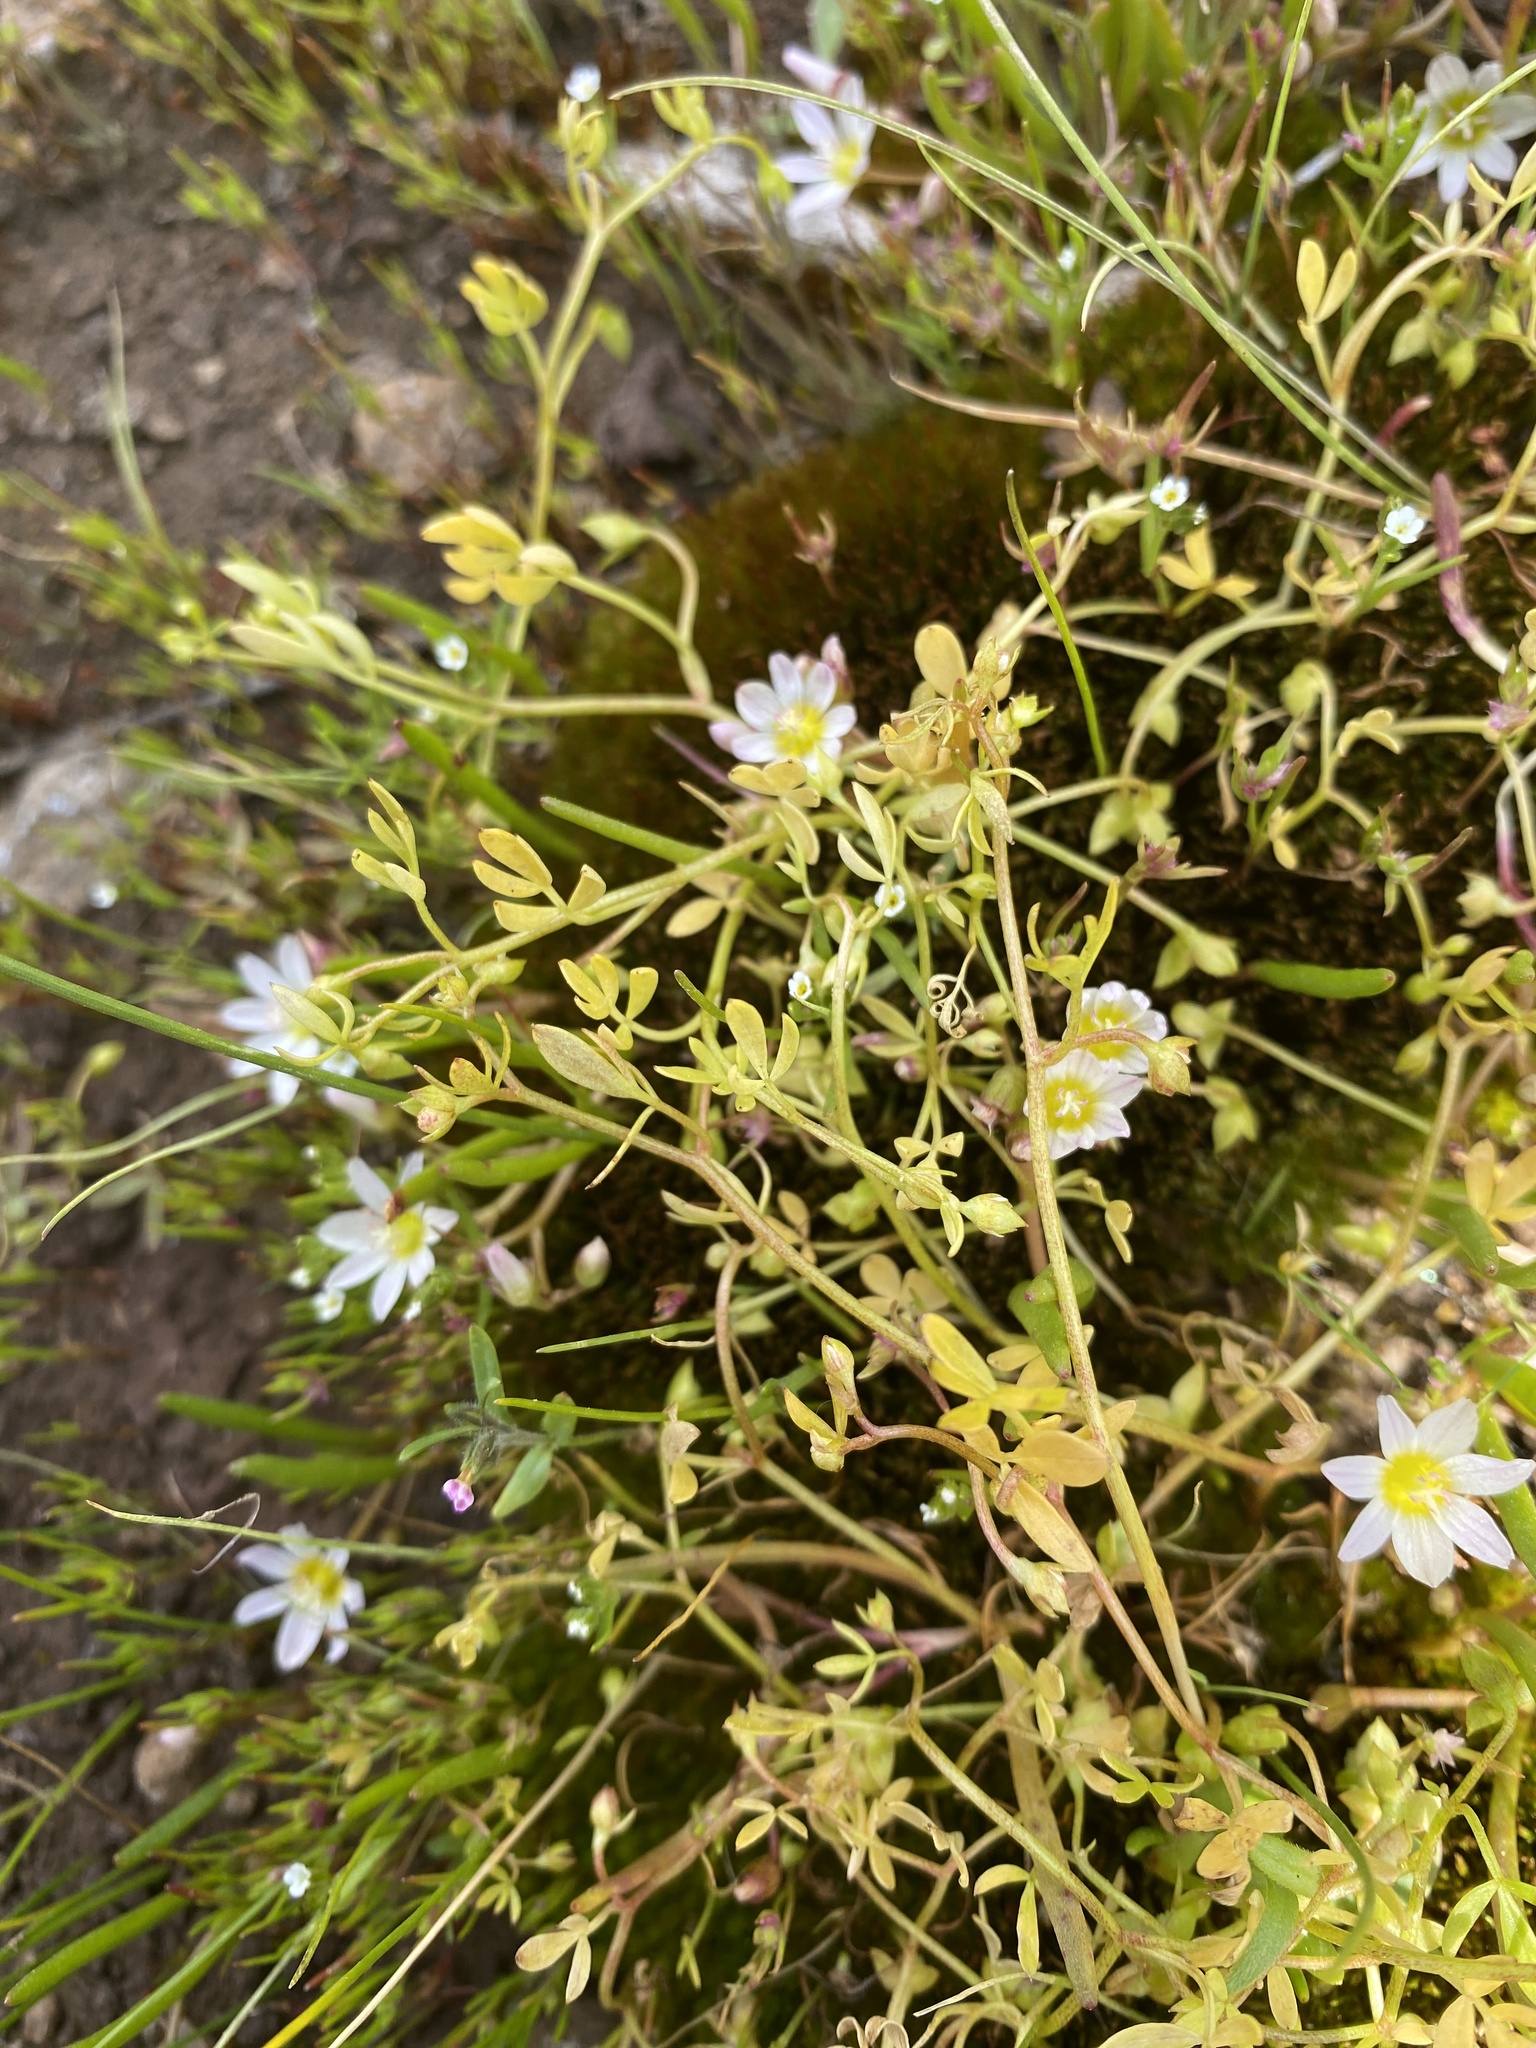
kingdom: Plantae
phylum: Tracheophyta
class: Magnoliopsida
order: Brassicales
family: Limnanthaceae
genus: Floerkea
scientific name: Floerkea proserpinacoides
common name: False mermaid
